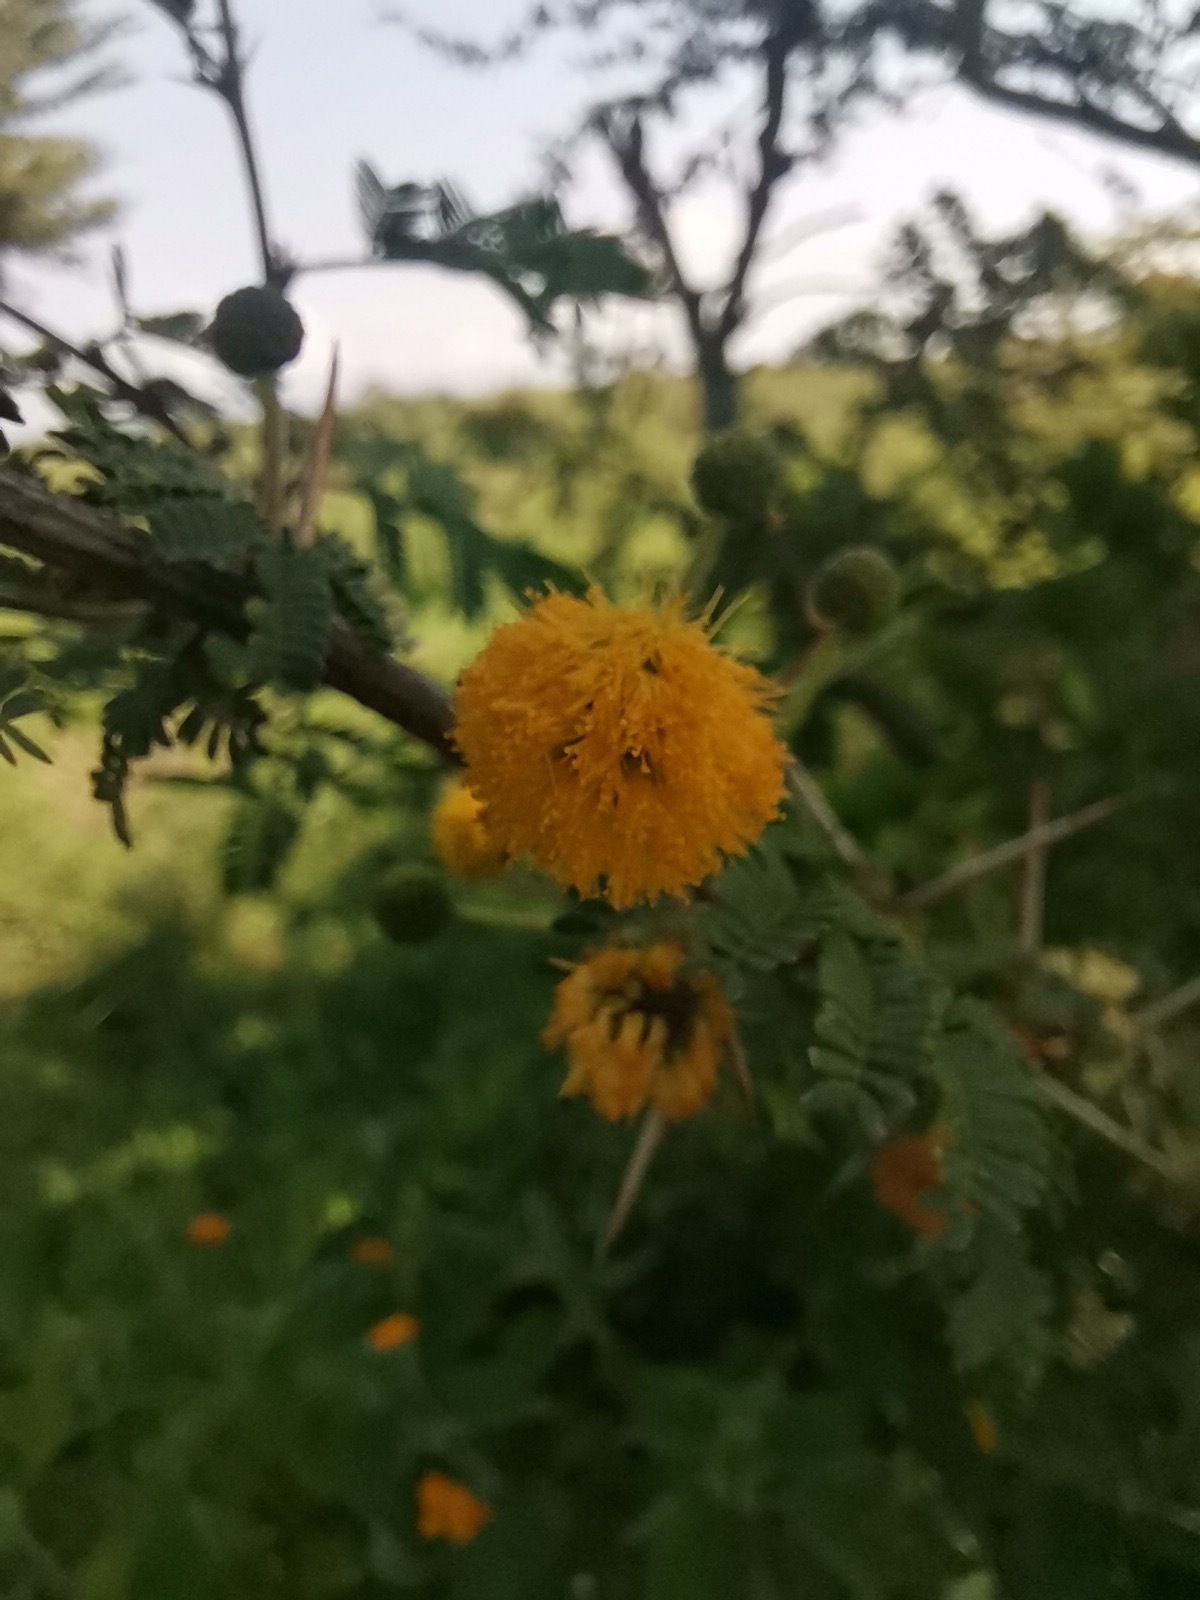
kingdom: Plantae
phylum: Tracheophyta
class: Magnoliopsida
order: Fabales
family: Fabaceae
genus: Vachellia
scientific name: Vachellia farnesiana
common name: Sweet acacia
